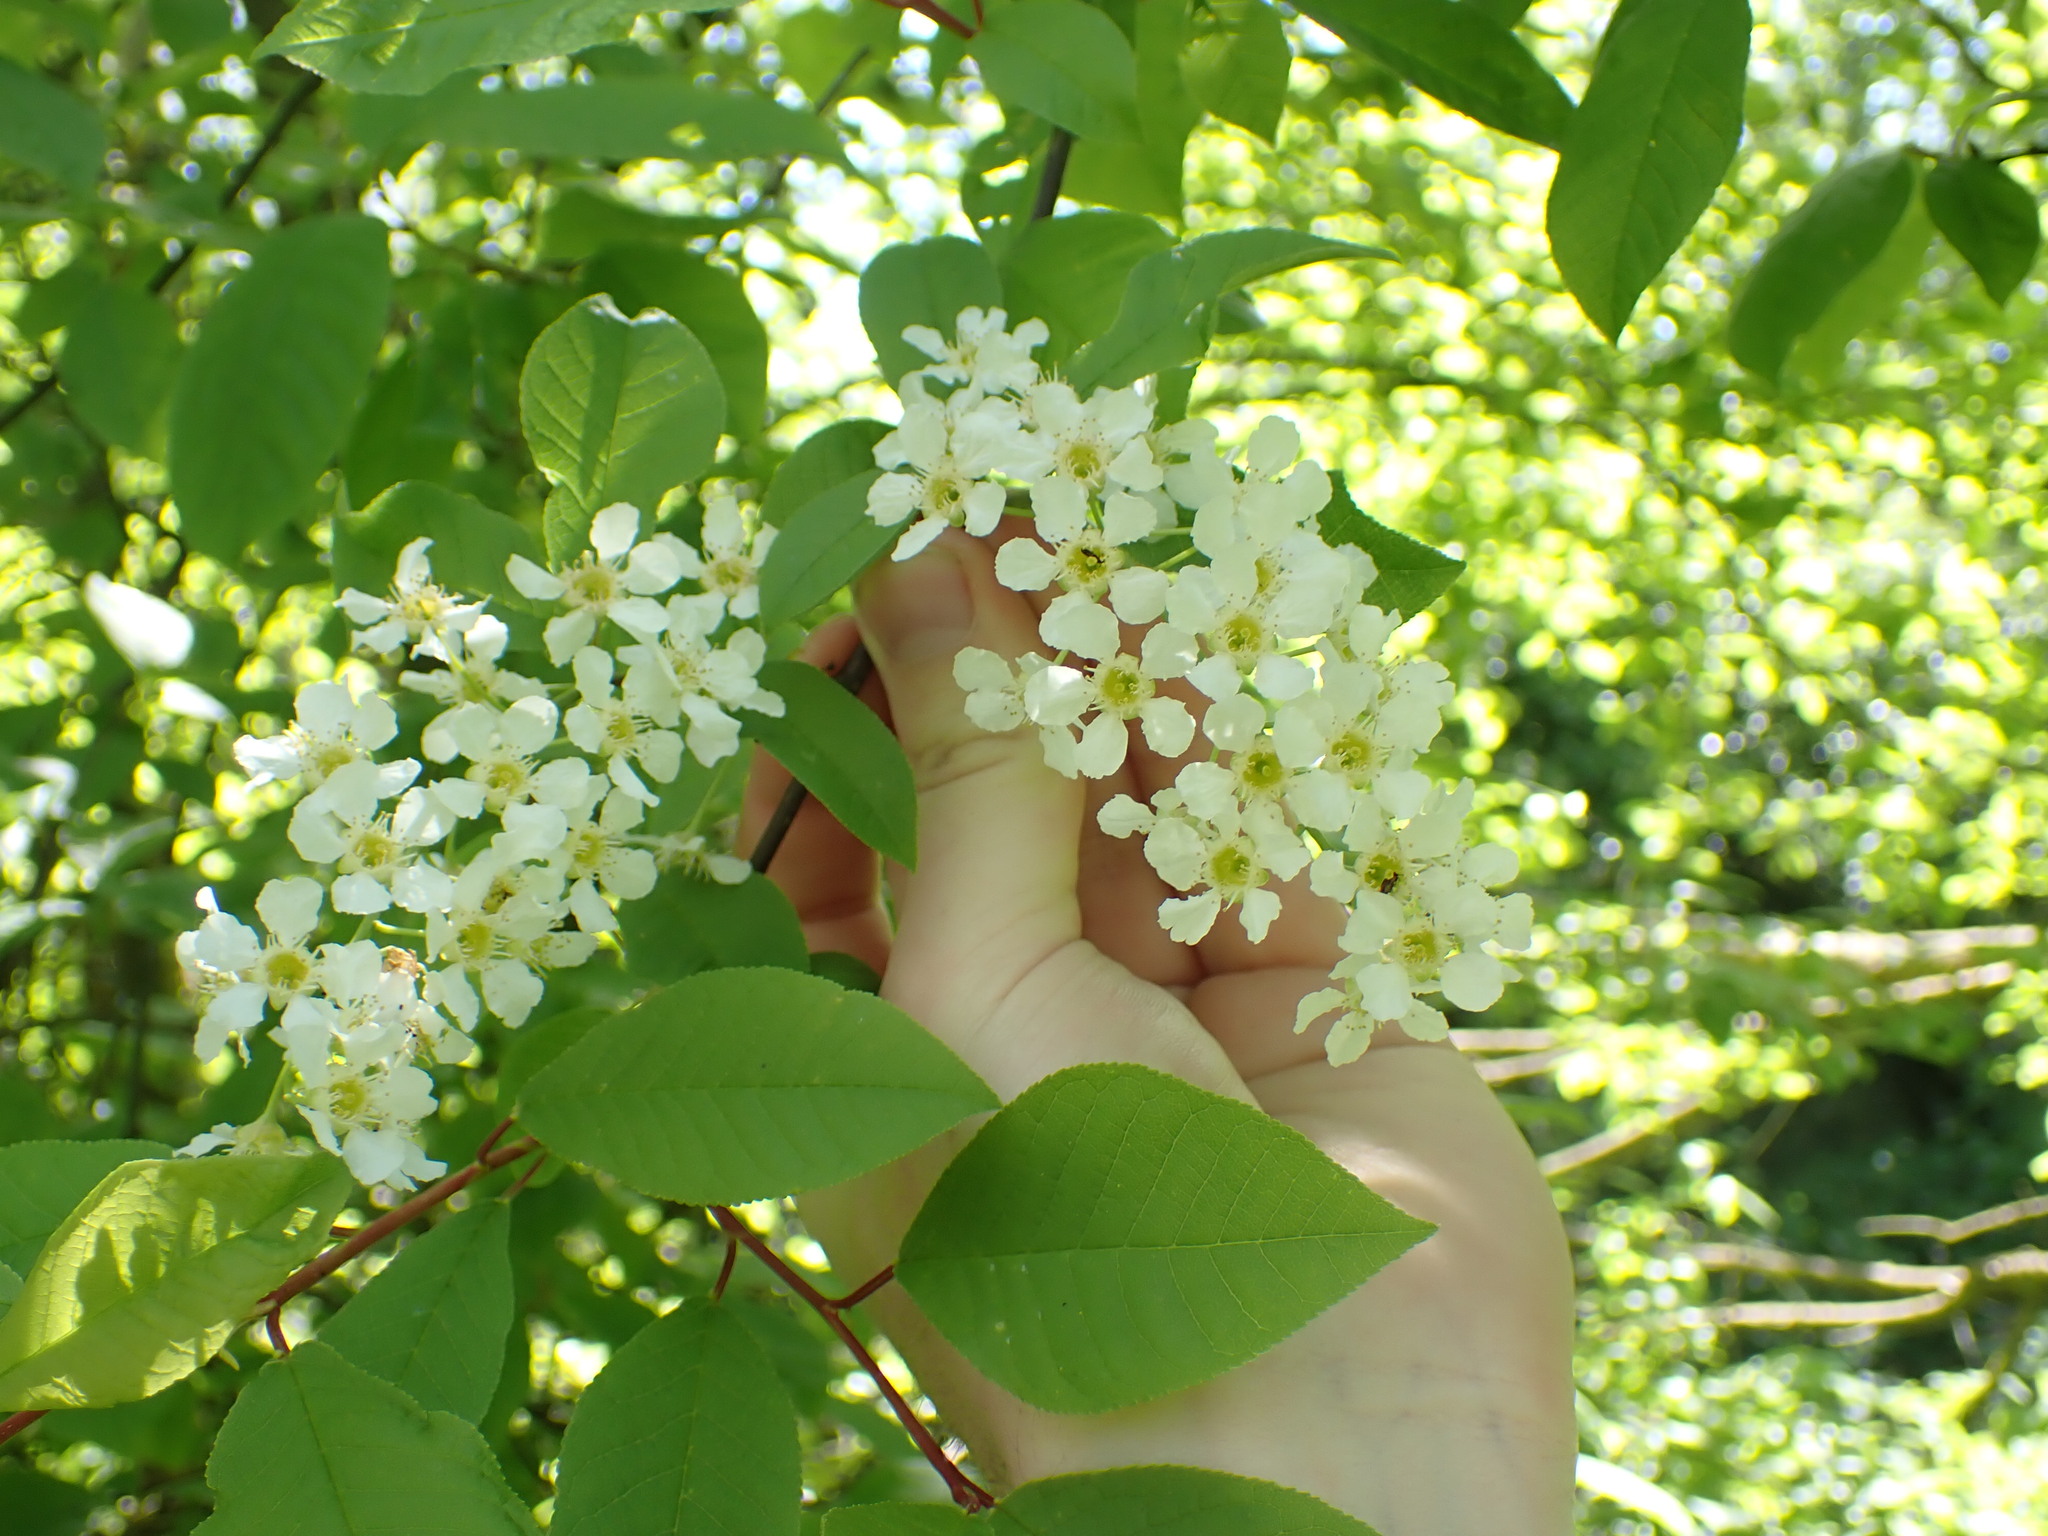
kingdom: Plantae
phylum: Tracheophyta
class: Magnoliopsida
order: Rosales
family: Rosaceae
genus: Prunus
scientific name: Prunus padus
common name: Bird cherry
